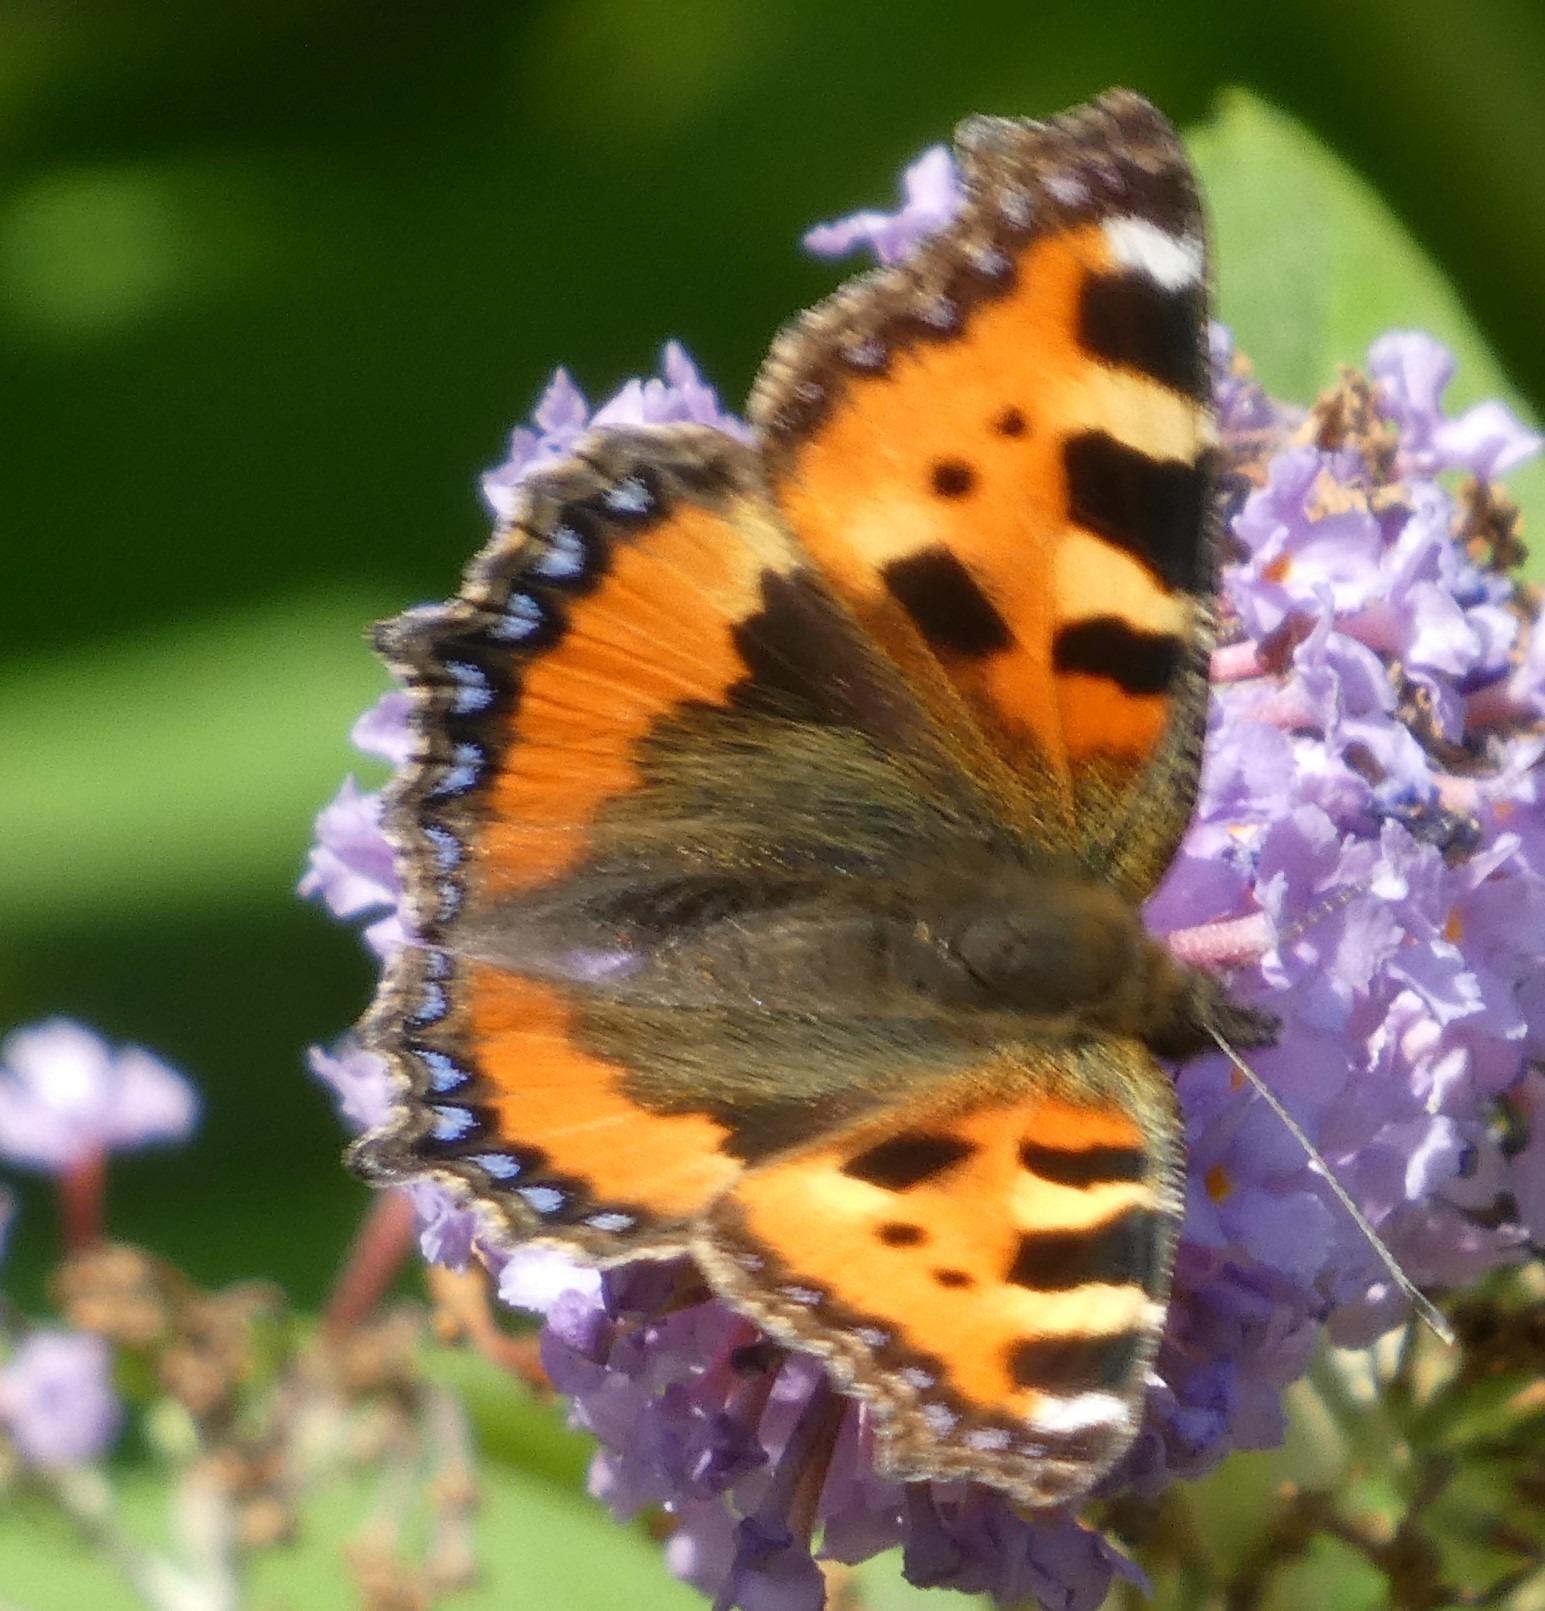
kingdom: Animalia
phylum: Arthropoda
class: Insecta
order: Lepidoptera
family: Nymphalidae
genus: Aglais
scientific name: Aglais urticae
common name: Small tortoiseshell
